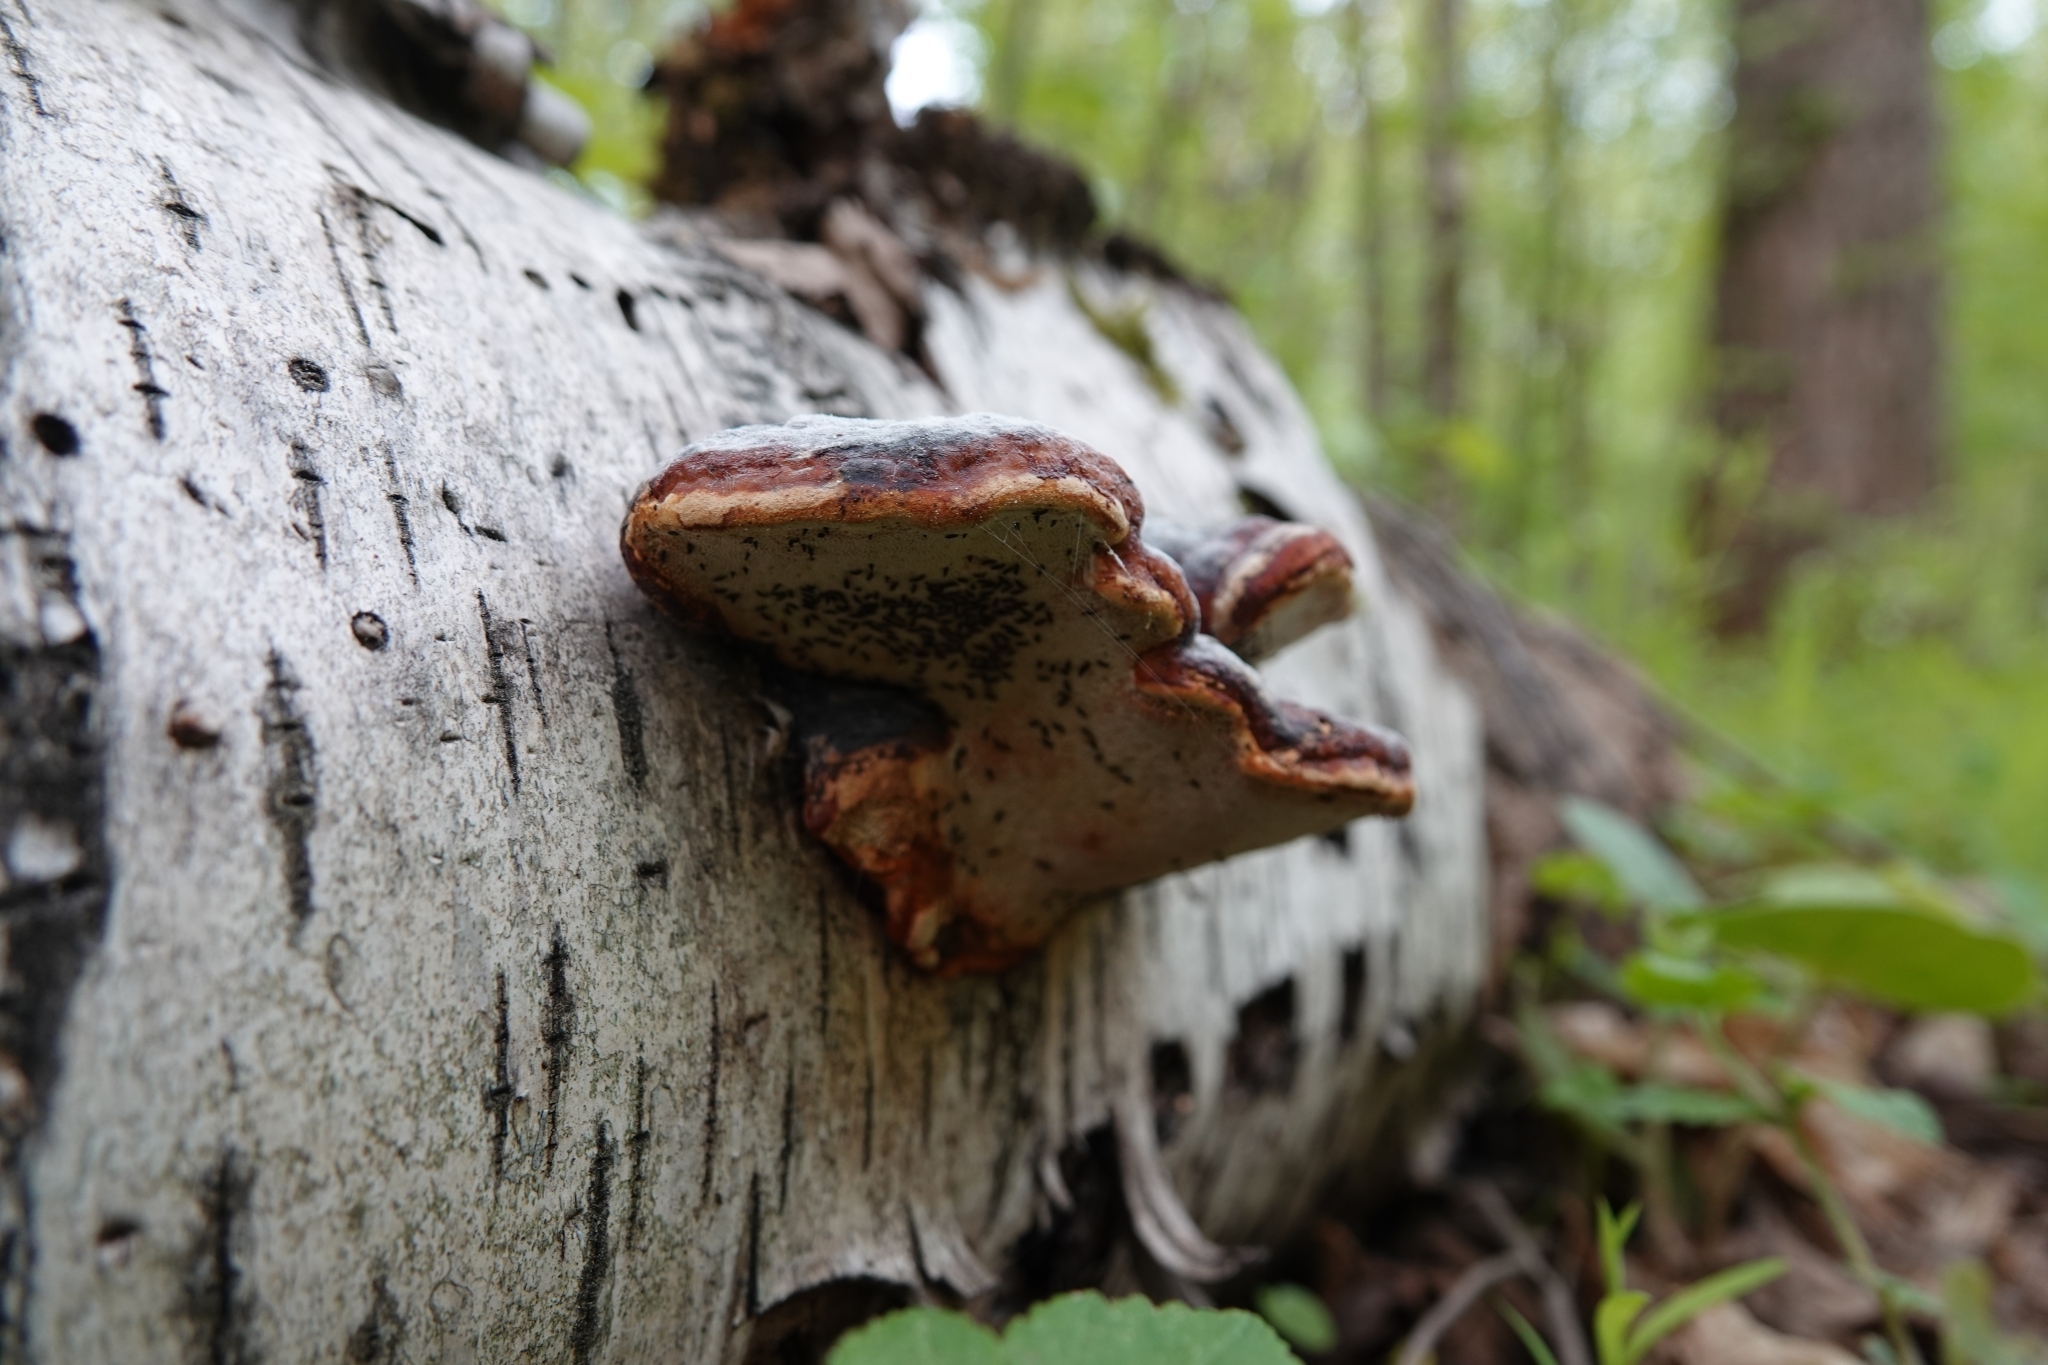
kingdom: Fungi
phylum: Basidiomycota
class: Agaricomycetes
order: Polyporales
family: Fomitopsidaceae
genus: Fomitopsis
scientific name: Fomitopsis pinicola
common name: Red-belted bracket
